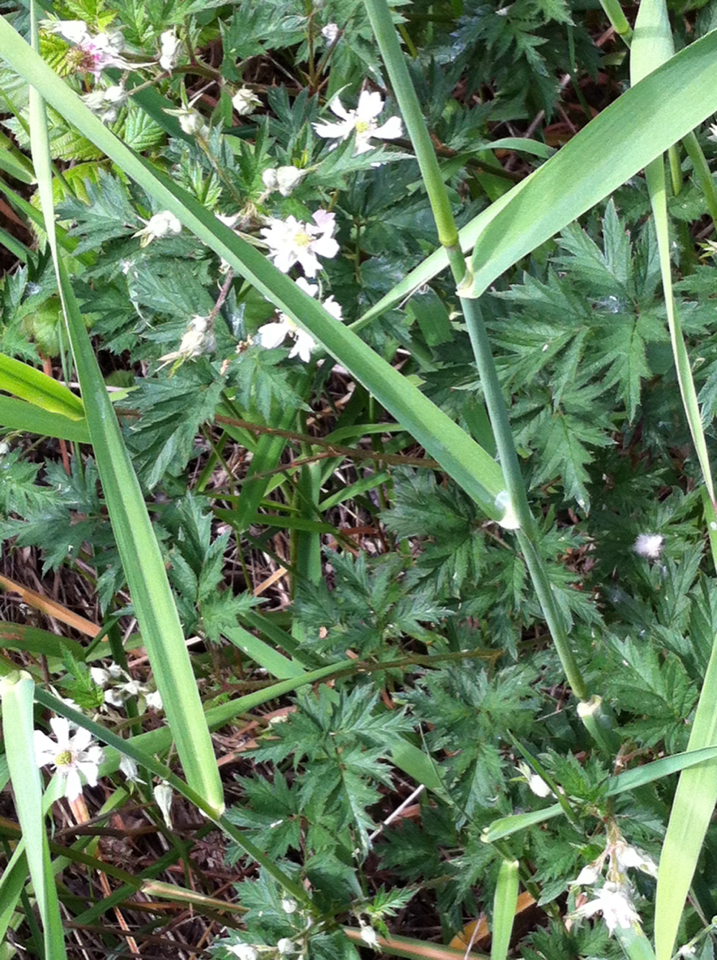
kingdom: Plantae
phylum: Tracheophyta
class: Magnoliopsida
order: Rosales
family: Rosaceae
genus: Rubus
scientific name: Rubus laciniatus
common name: Evergreen blackberry
